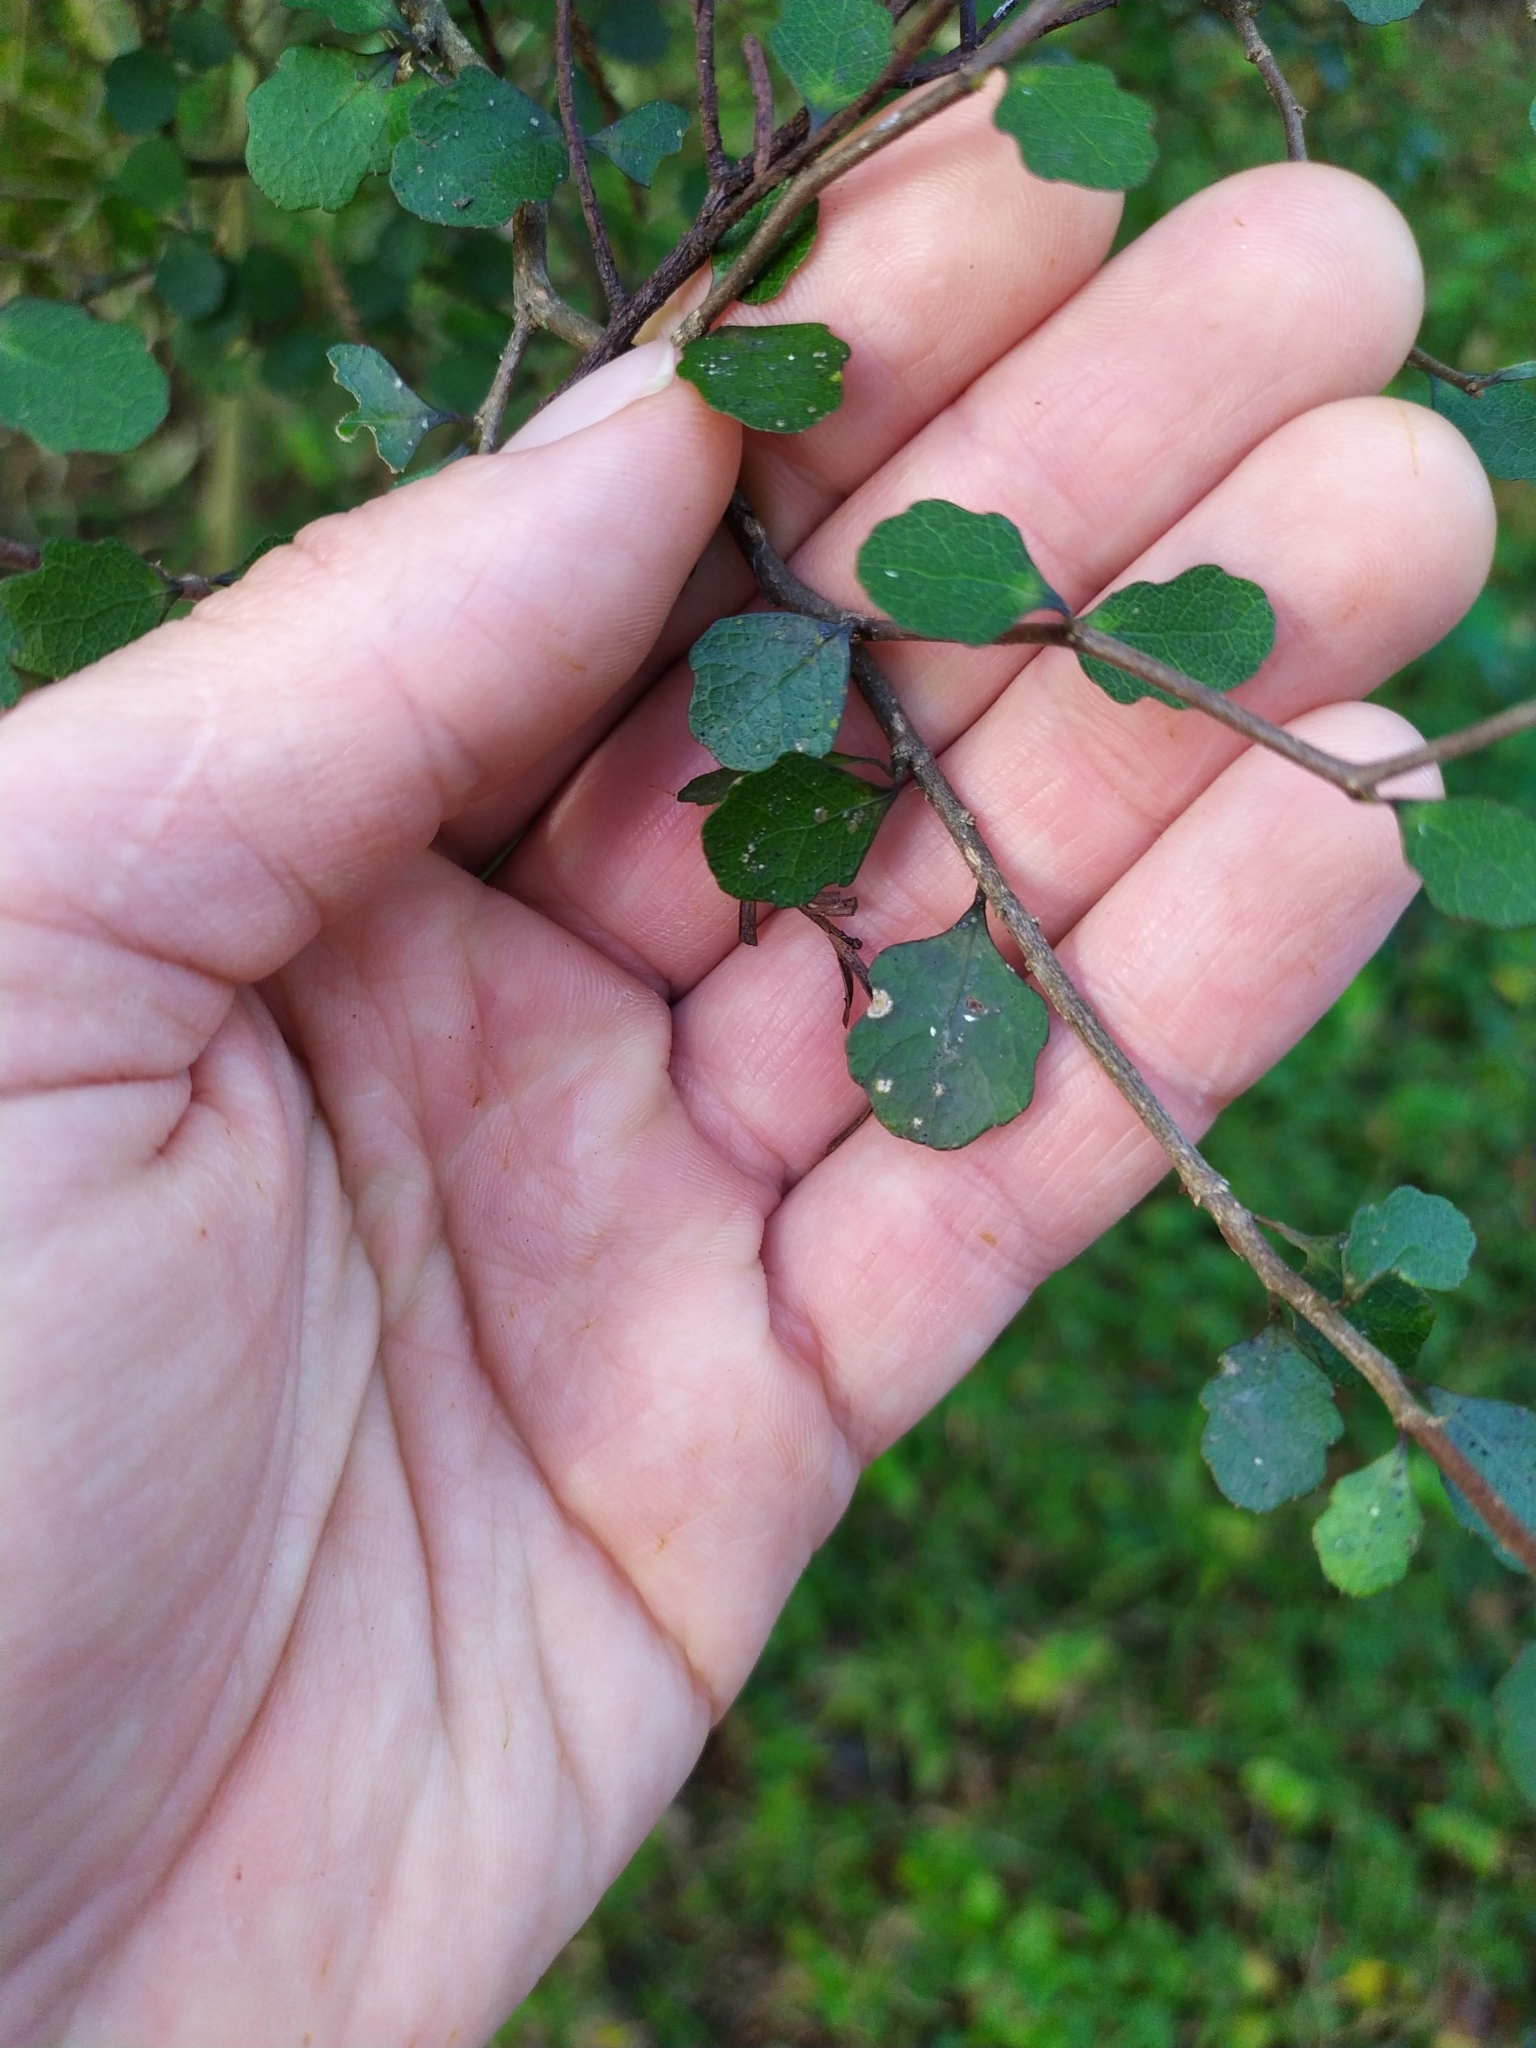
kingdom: Plantae
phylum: Tracheophyta
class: Magnoliopsida
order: Malpighiales
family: Violaceae
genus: Melicytus
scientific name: Melicytus micranthus
